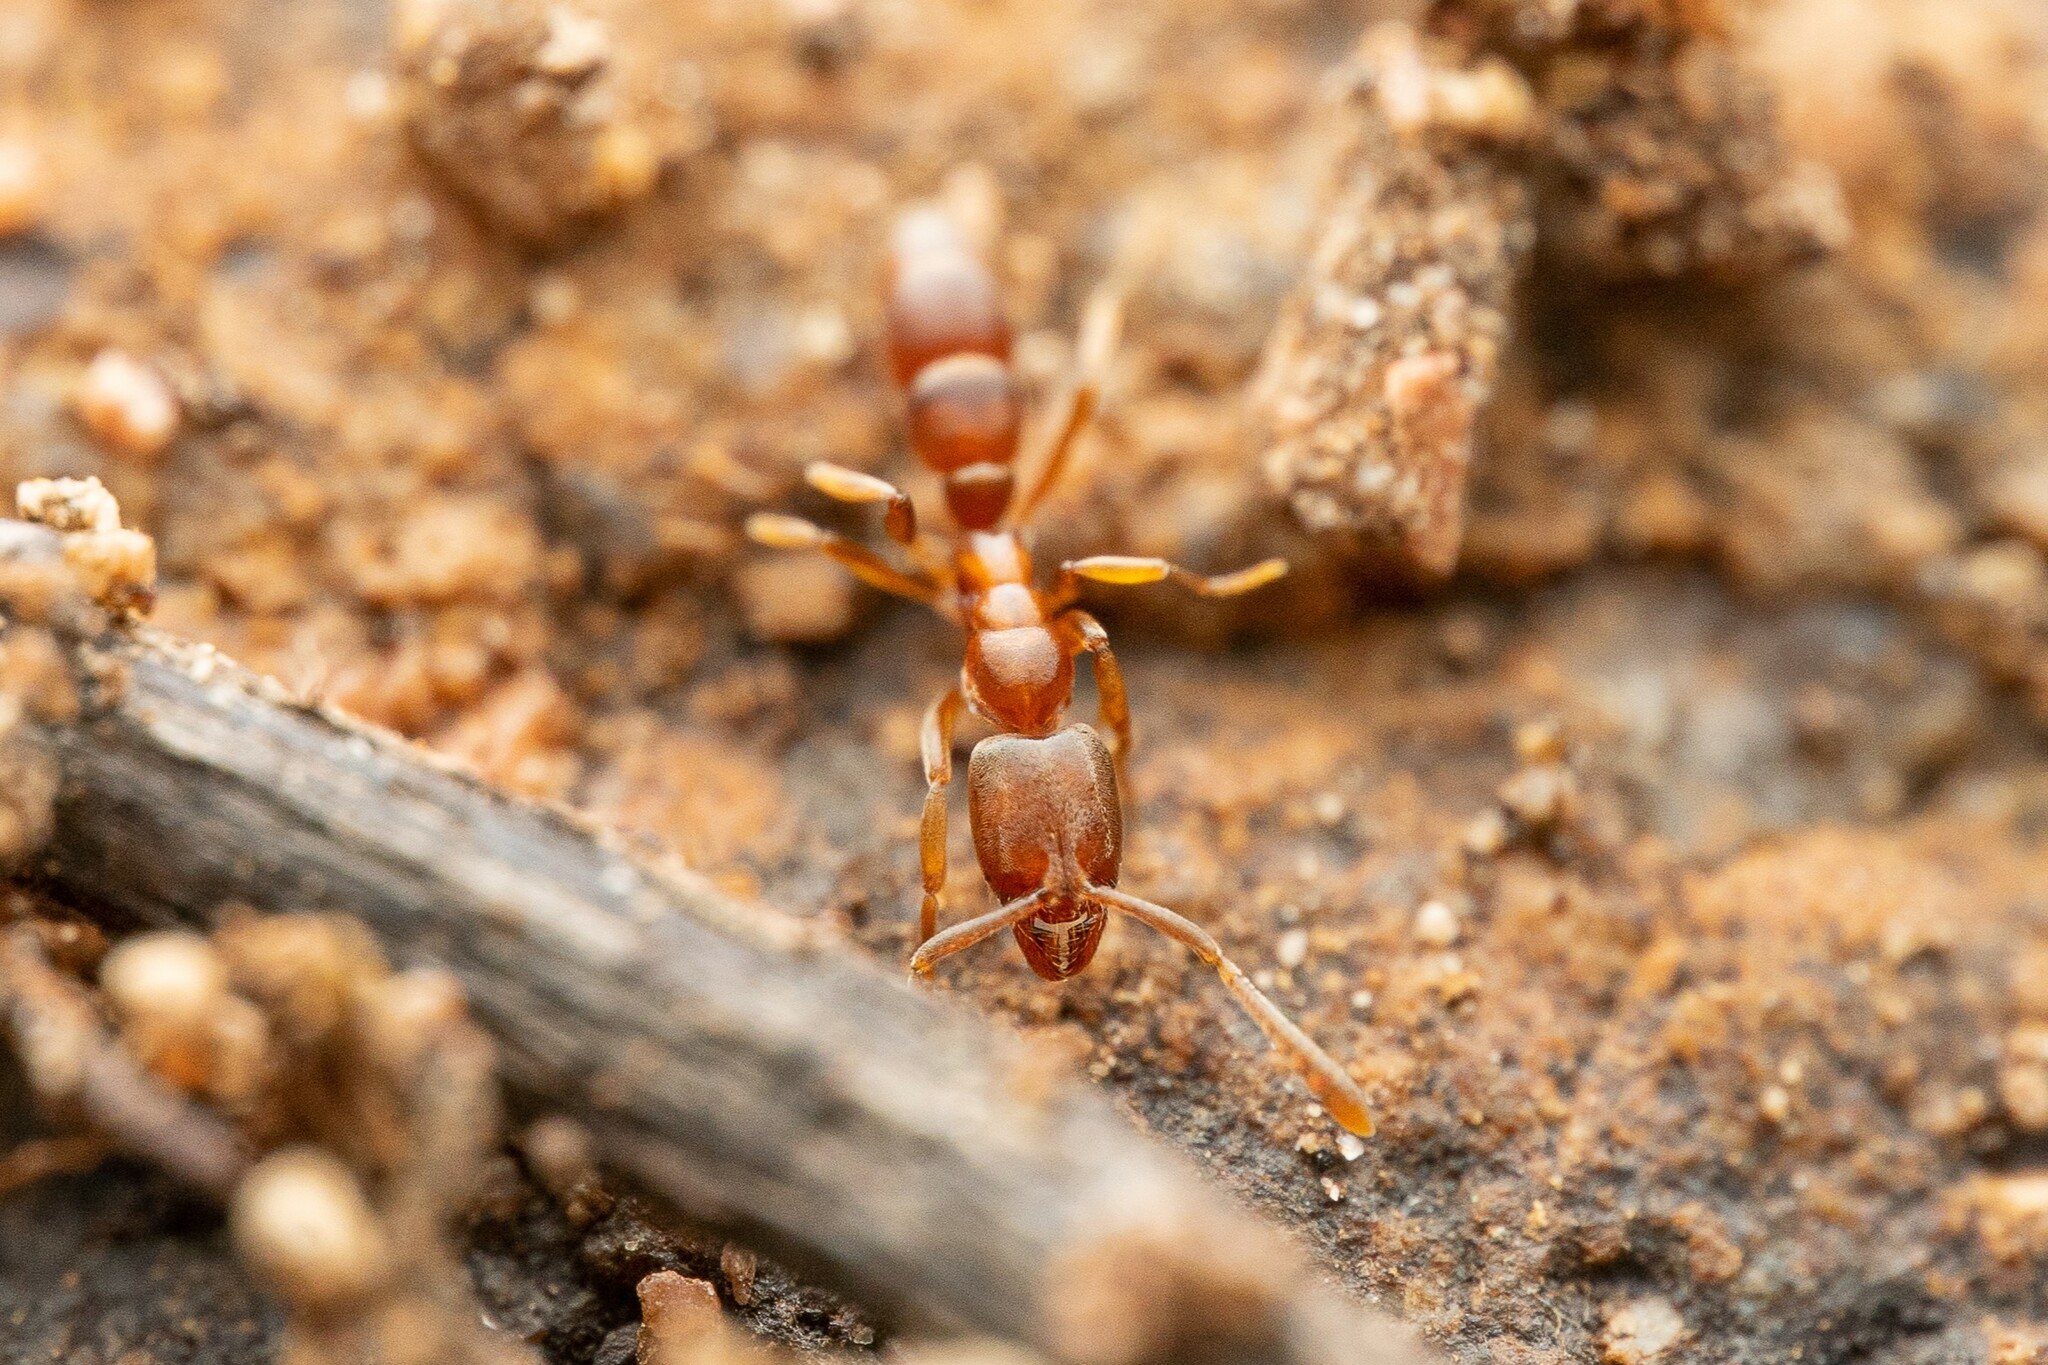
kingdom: Animalia
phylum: Arthropoda
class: Insecta
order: Hymenoptera
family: Formicidae
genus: Hypoponera
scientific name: Hypoponera opacior
